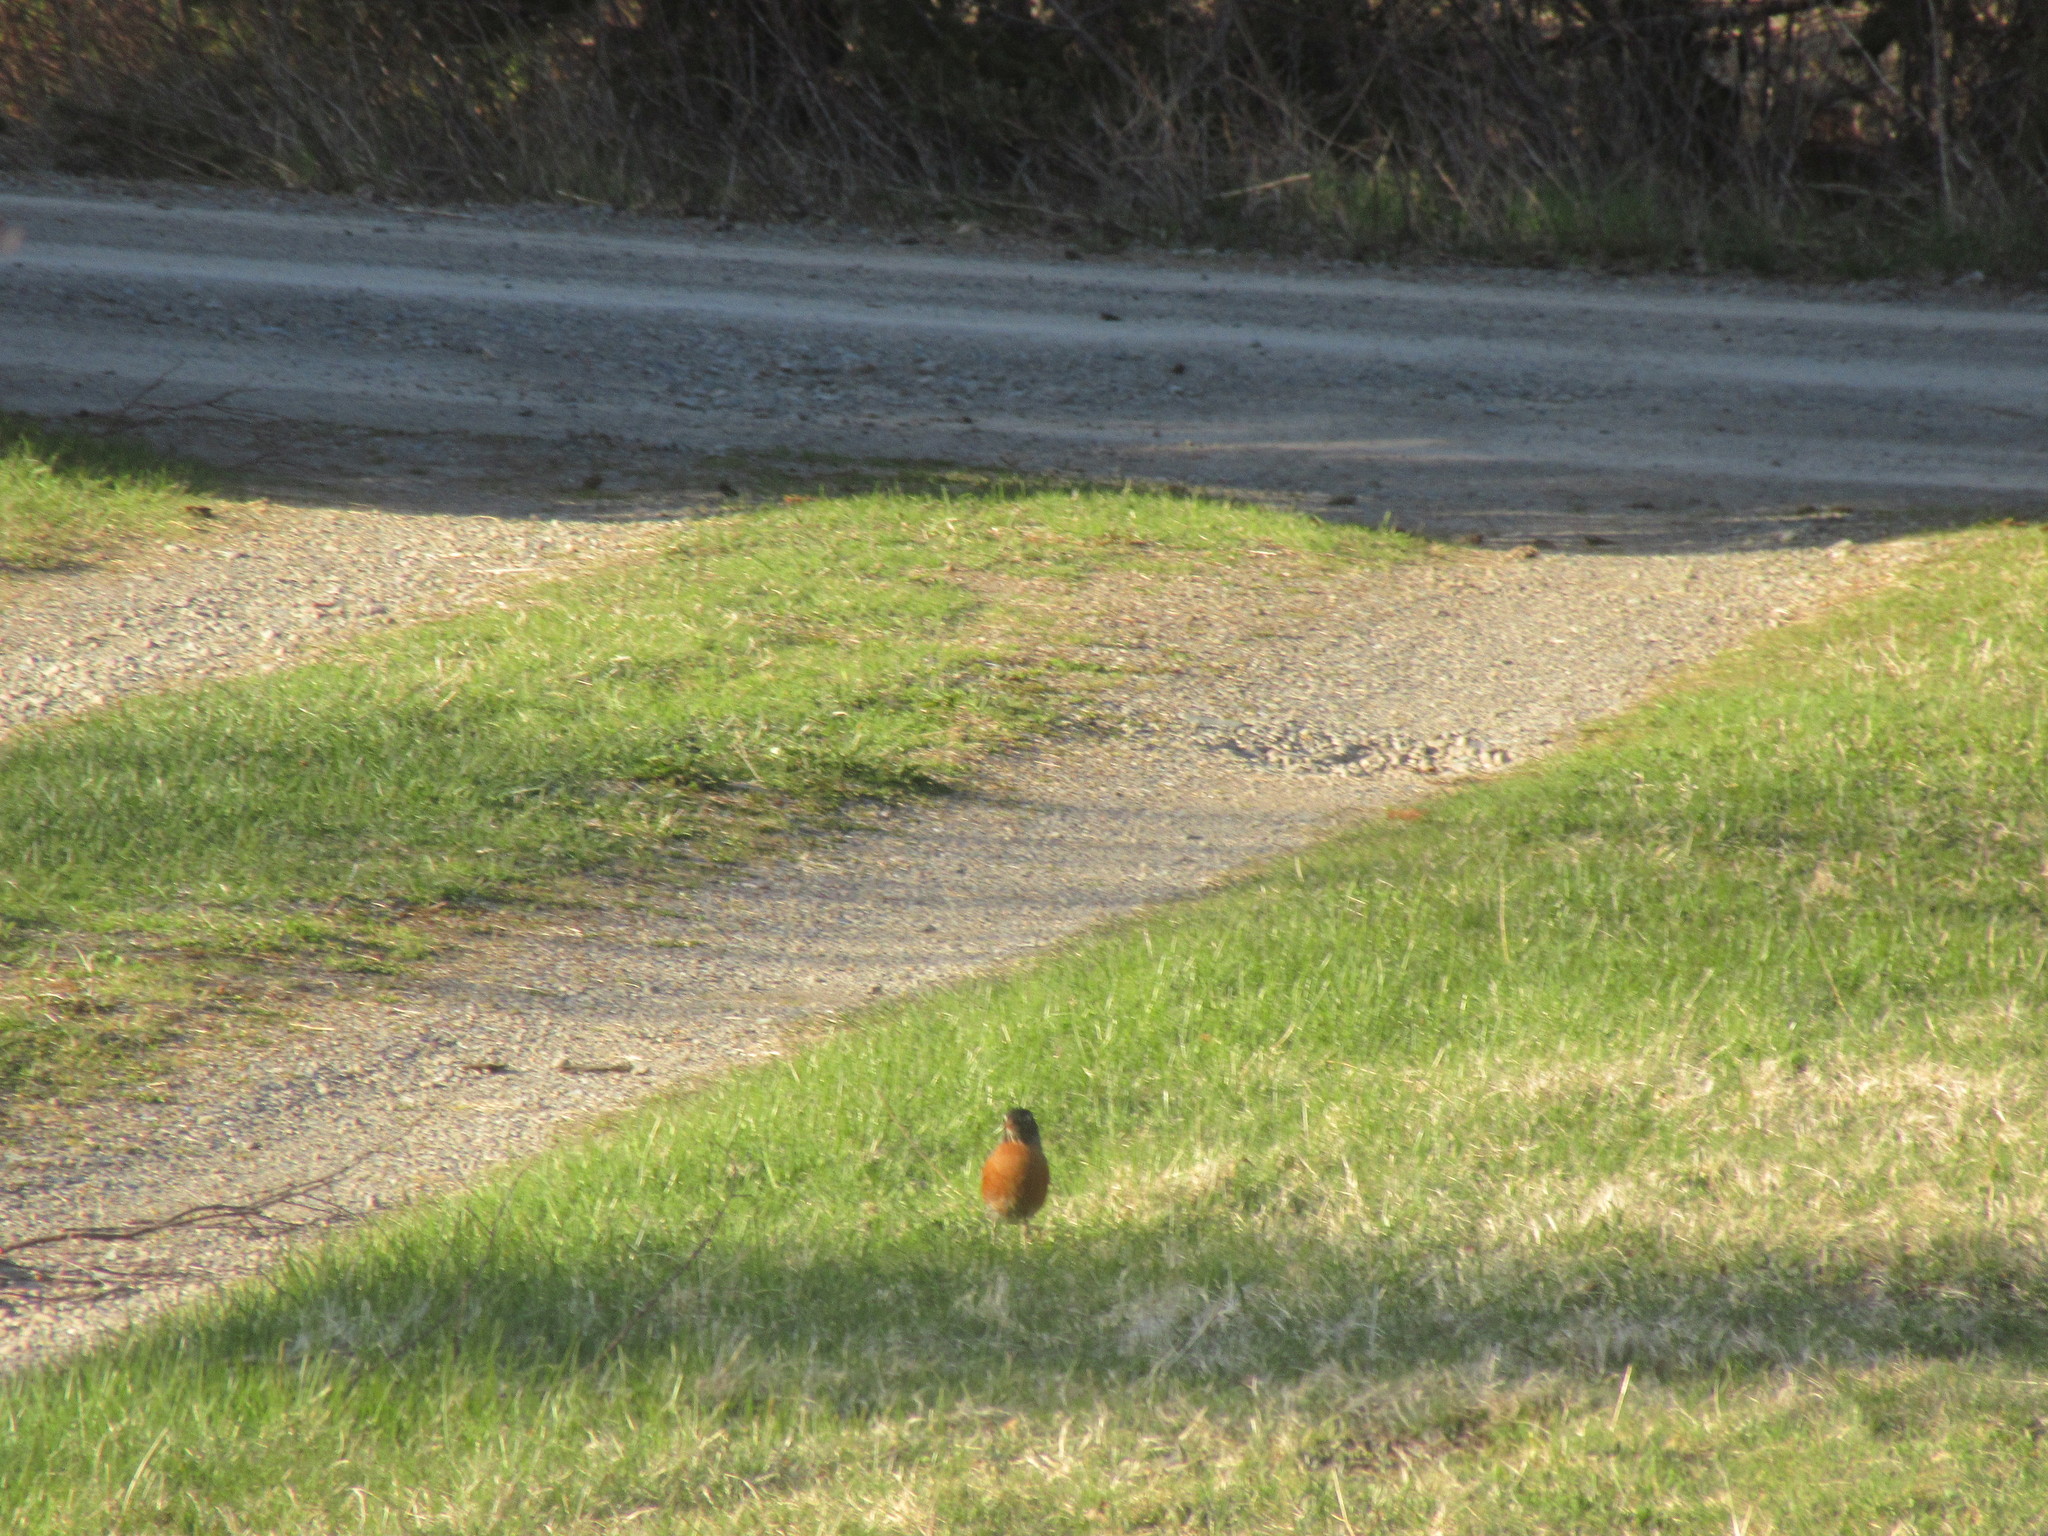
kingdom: Animalia
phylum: Chordata
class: Aves
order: Passeriformes
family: Turdidae
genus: Turdus
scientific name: Turdus migratorius
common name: American robin
